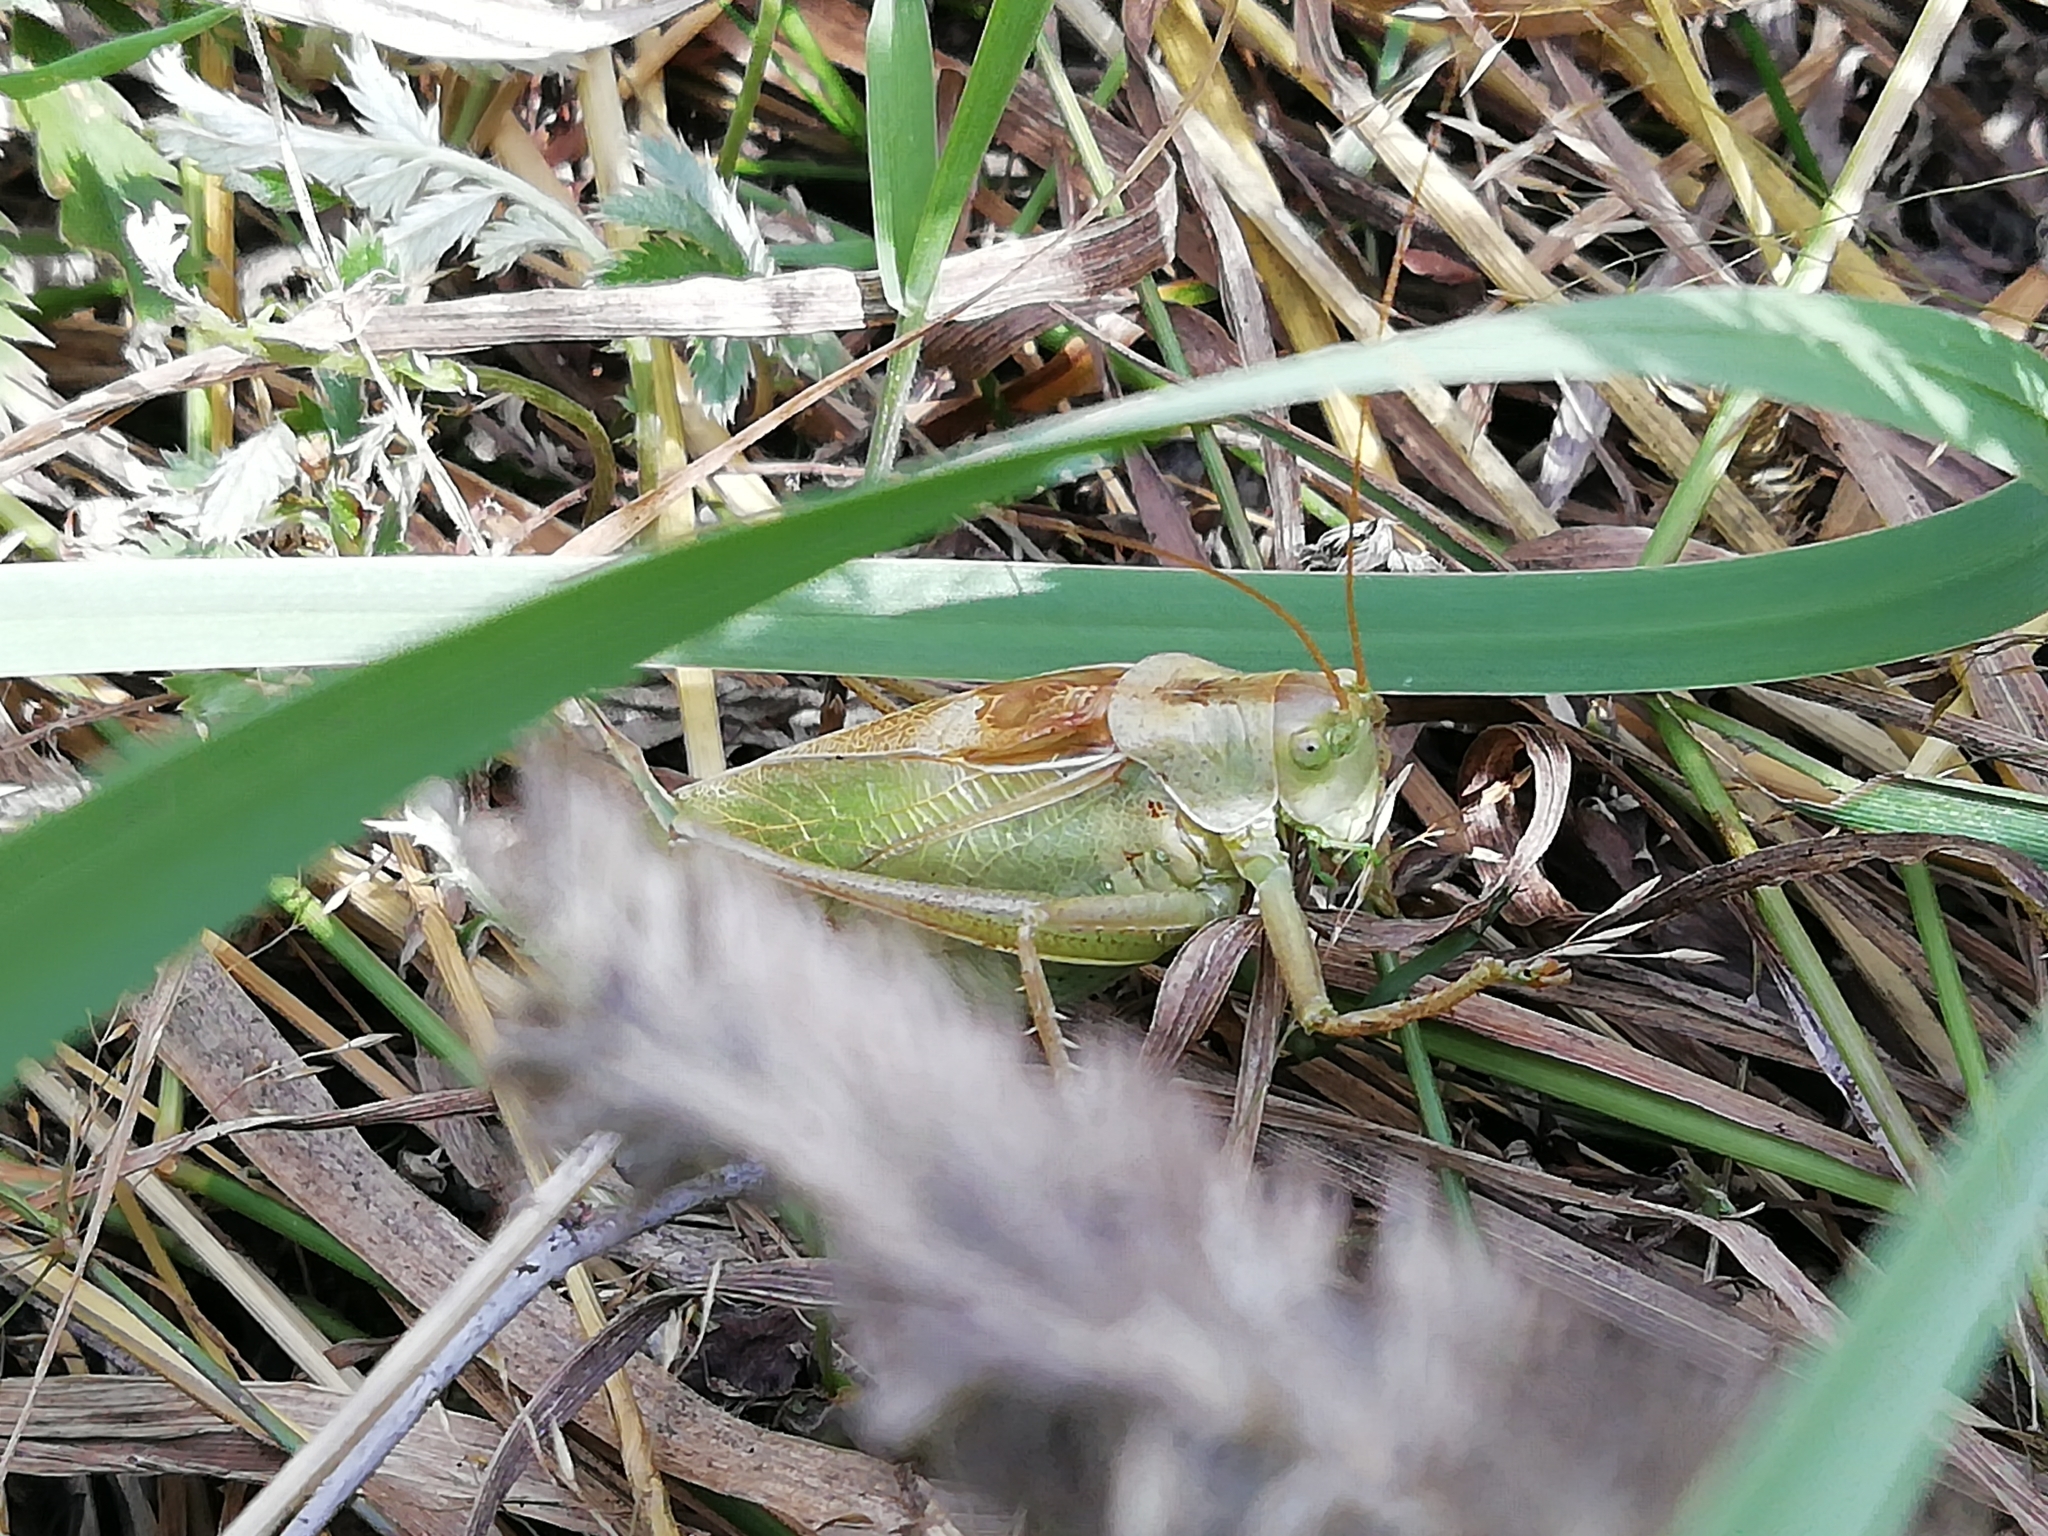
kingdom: Animalia
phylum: Arthropoda
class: Insecta
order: Orthoptera
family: Tettigoniidae
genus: Tettigonia
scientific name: Tettigonia cantans
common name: Upland green bush-cricket
